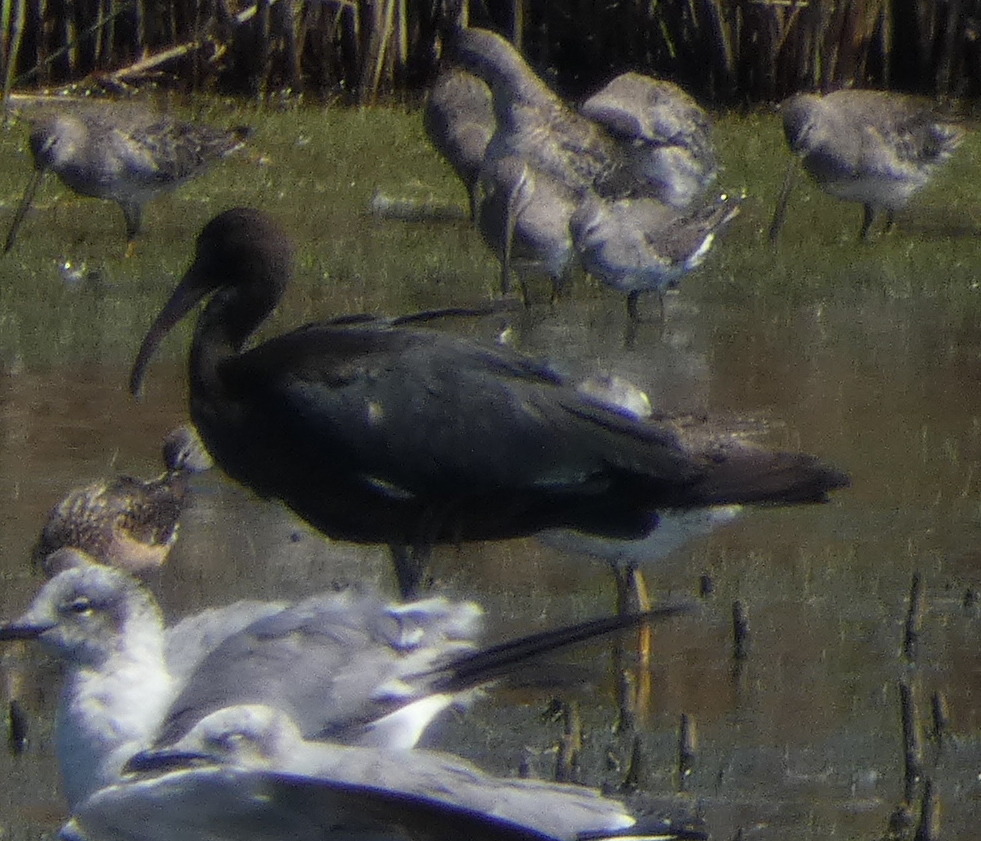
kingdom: Animalia
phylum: Chordata
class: Aves
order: Pelecaniformes
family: Threskiornithidae
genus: Plegadis
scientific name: Plegadis falcinellus
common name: Glossy ibis
